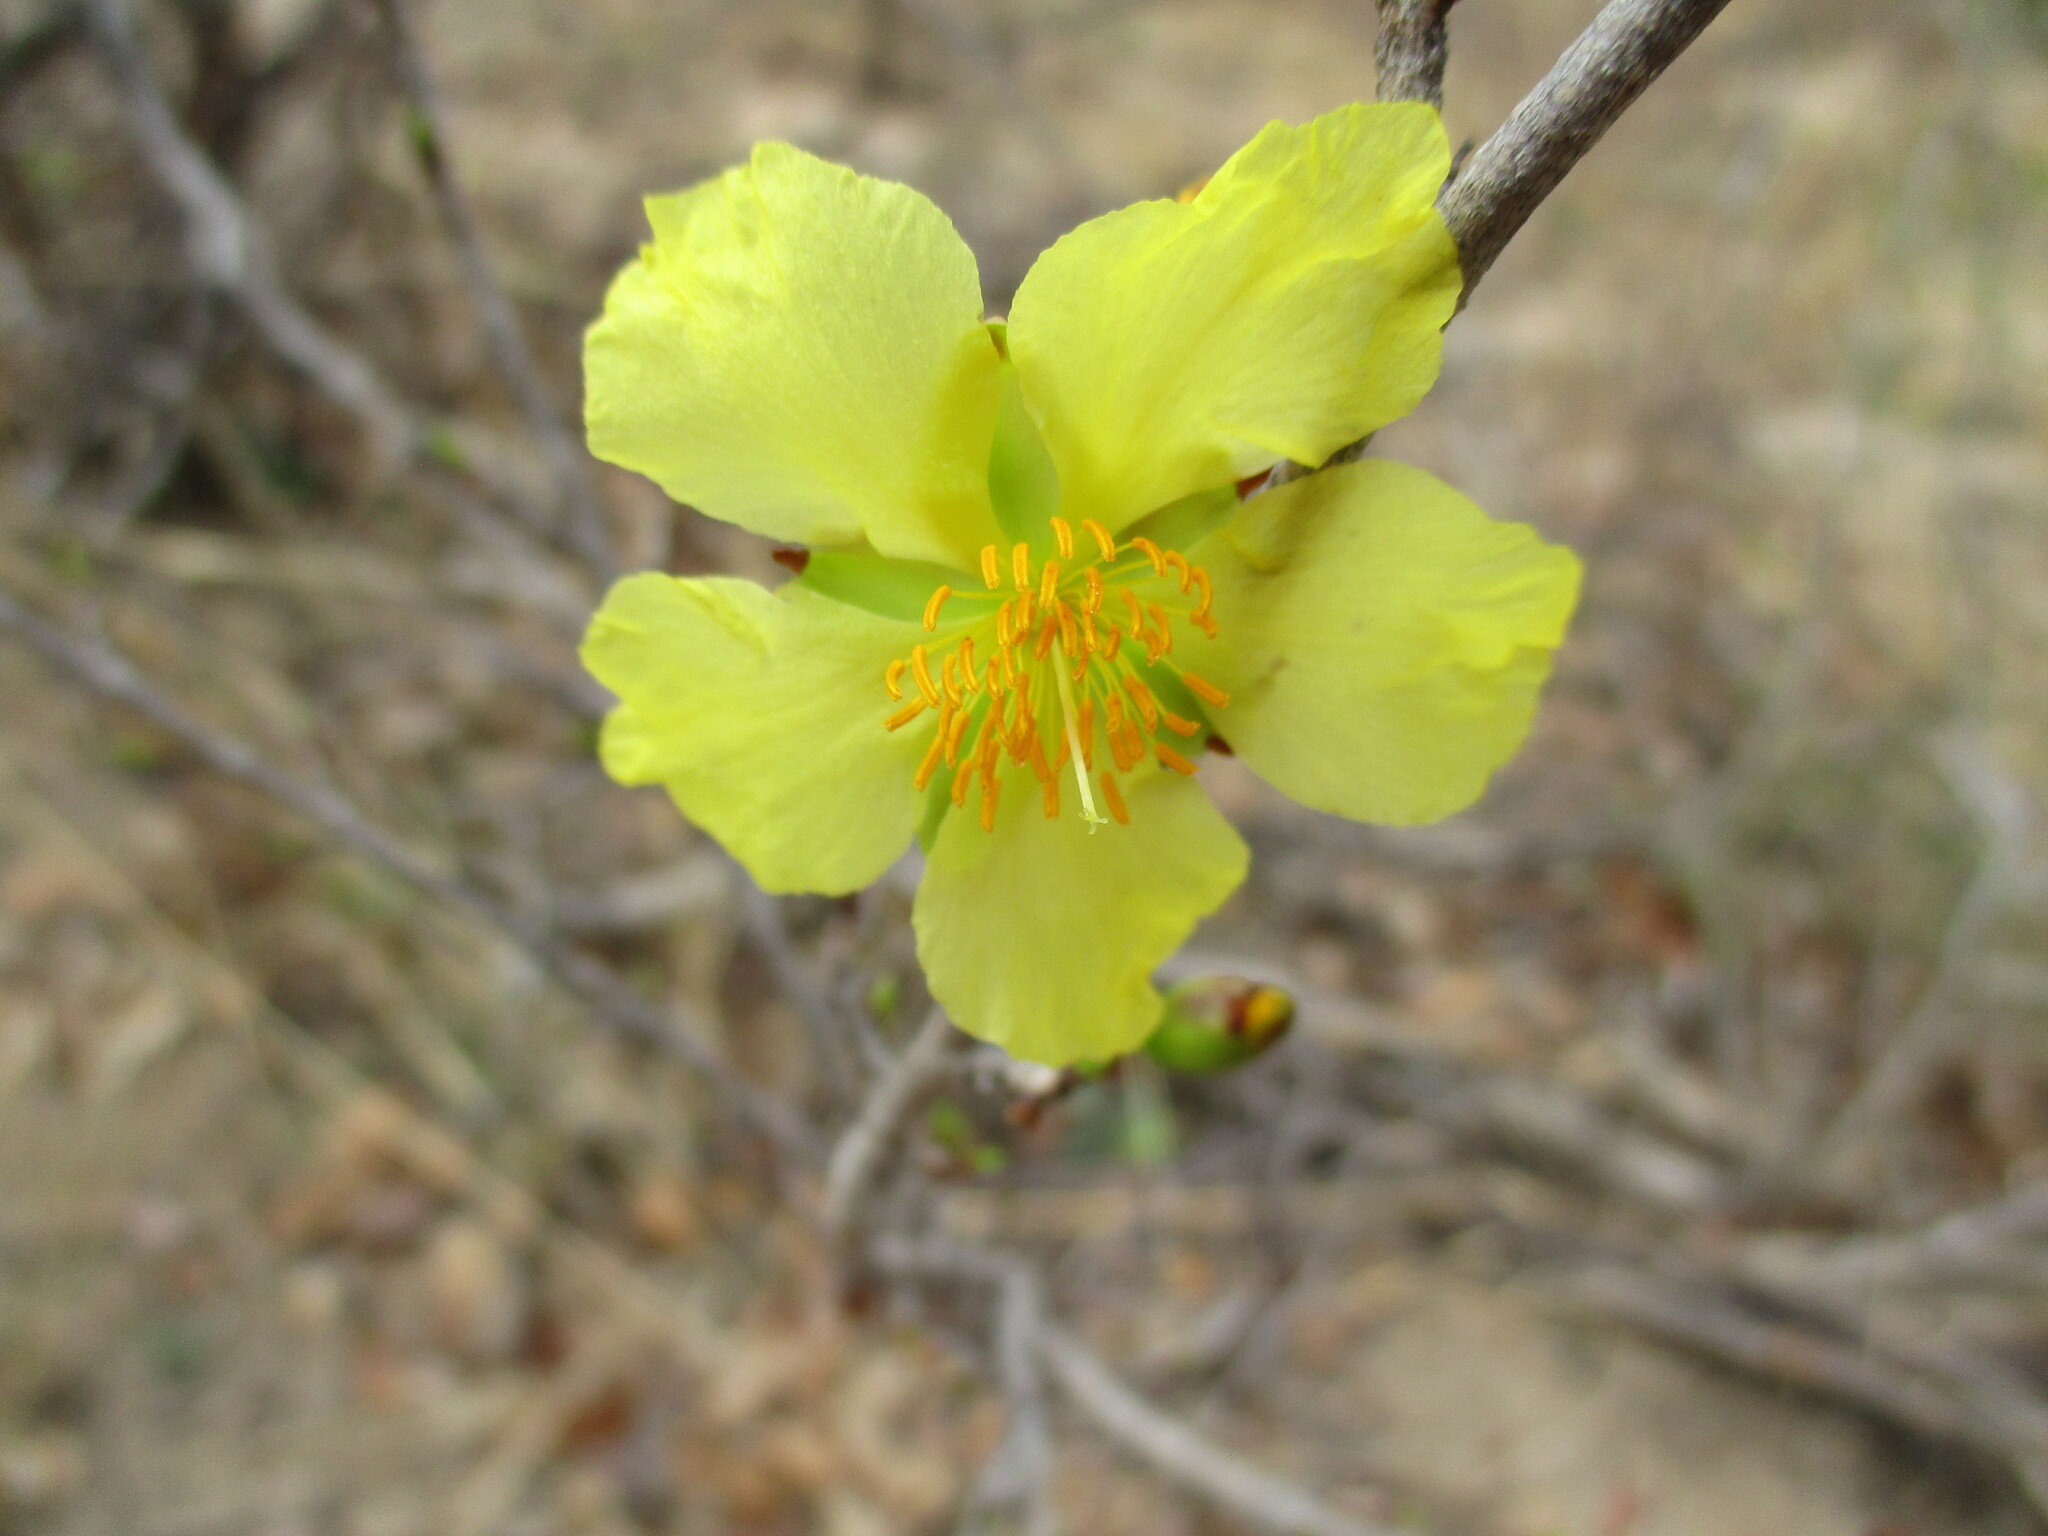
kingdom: Plantae
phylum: Tracheophyta
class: Magnoliopsida
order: Malpighiales
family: Ochnaceae
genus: Ochna
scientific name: Ochna cinnabarina
